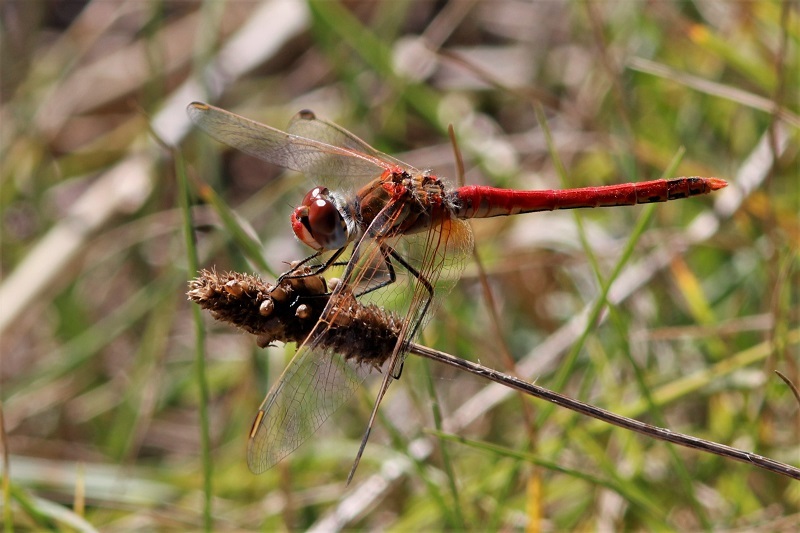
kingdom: Animalia
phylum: Arthropoda
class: Insecta
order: Odonata
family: Libellulidae
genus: Sympetrum
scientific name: Sympetrum fonscolombii
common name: Red-veined darter
